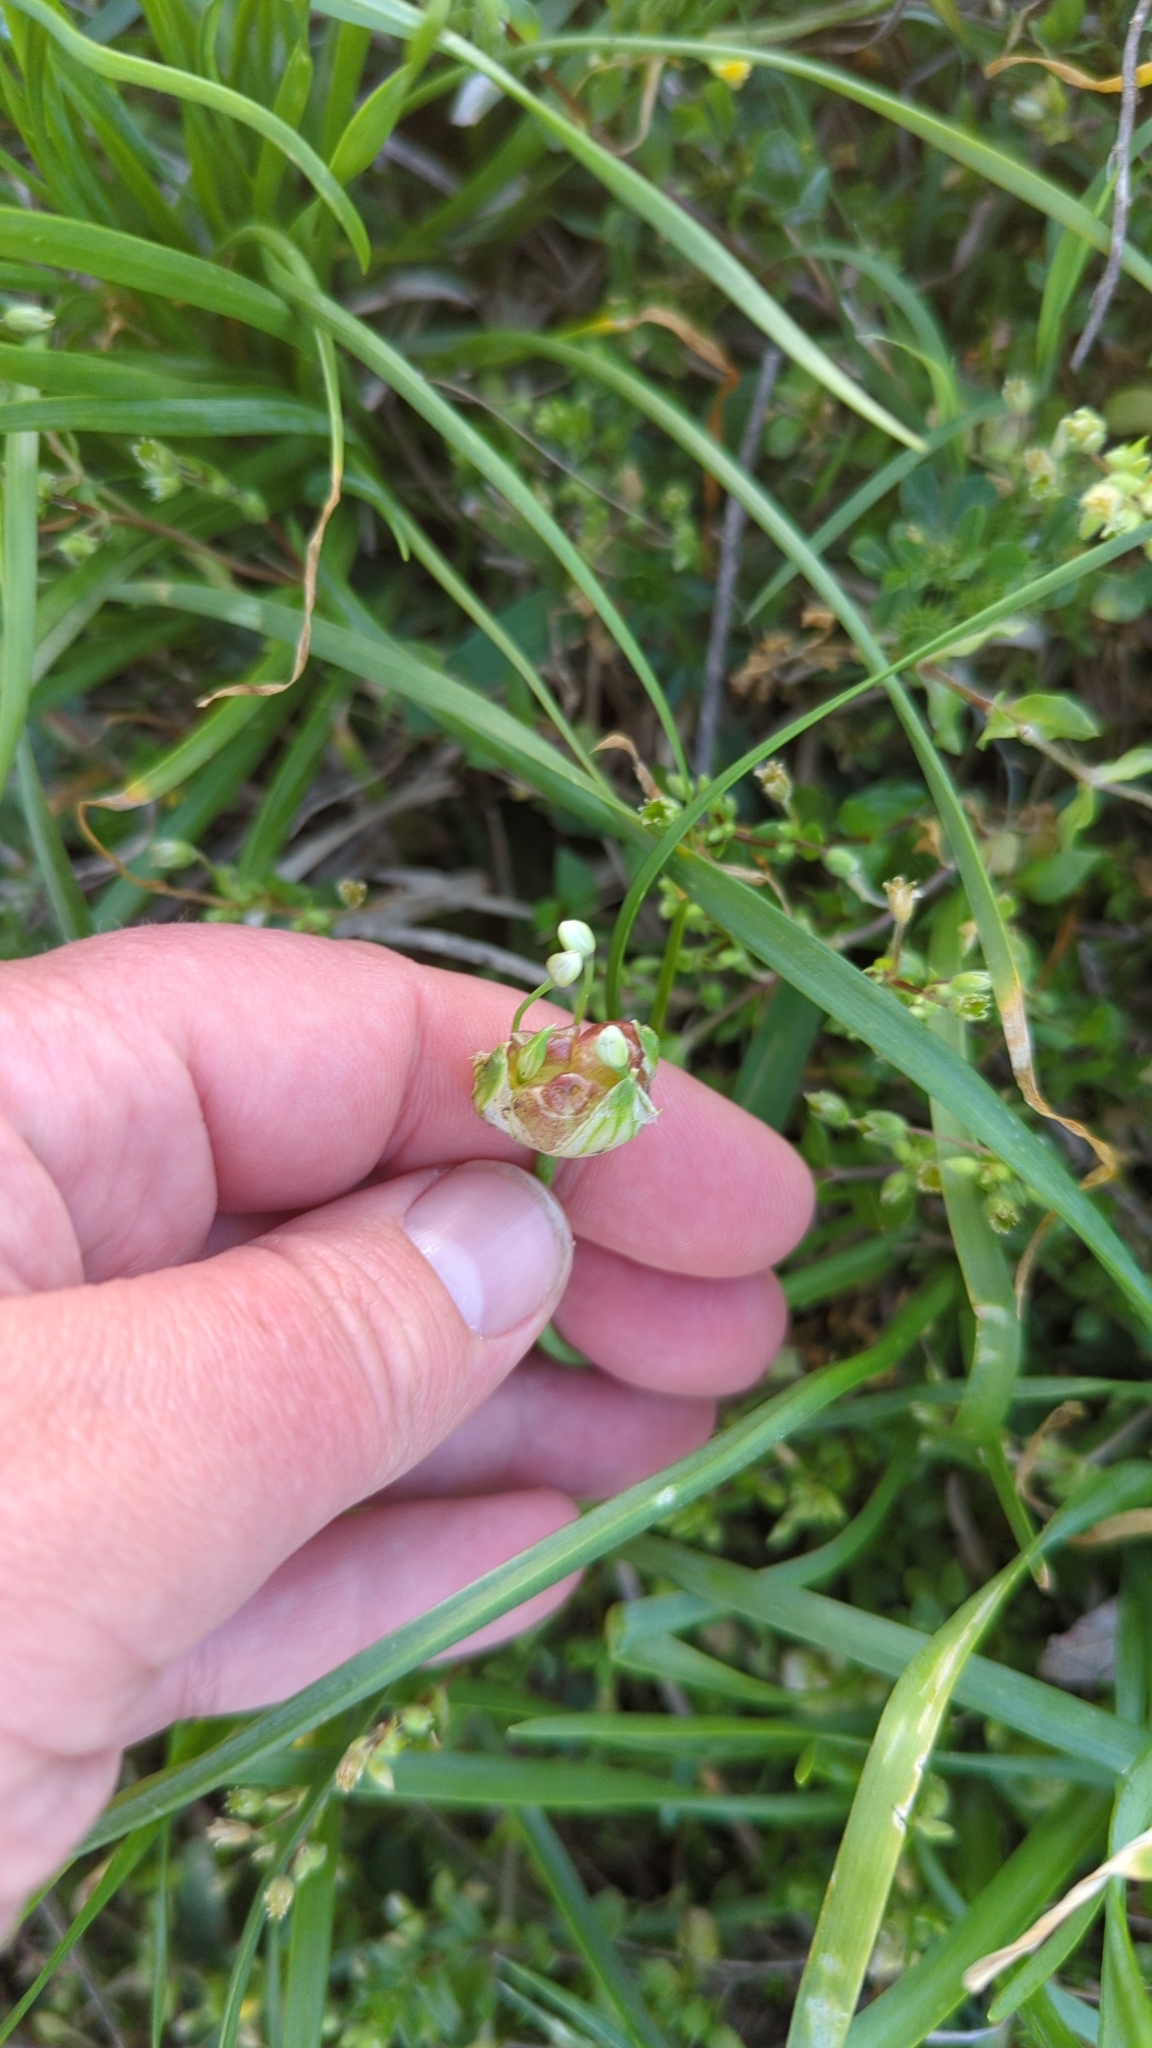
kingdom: Plantae
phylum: Tracheophyta
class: Liliopsida
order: Asparagales
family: Amaryllidaceae
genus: Allium
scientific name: Allium canadense
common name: Meadow garlic
